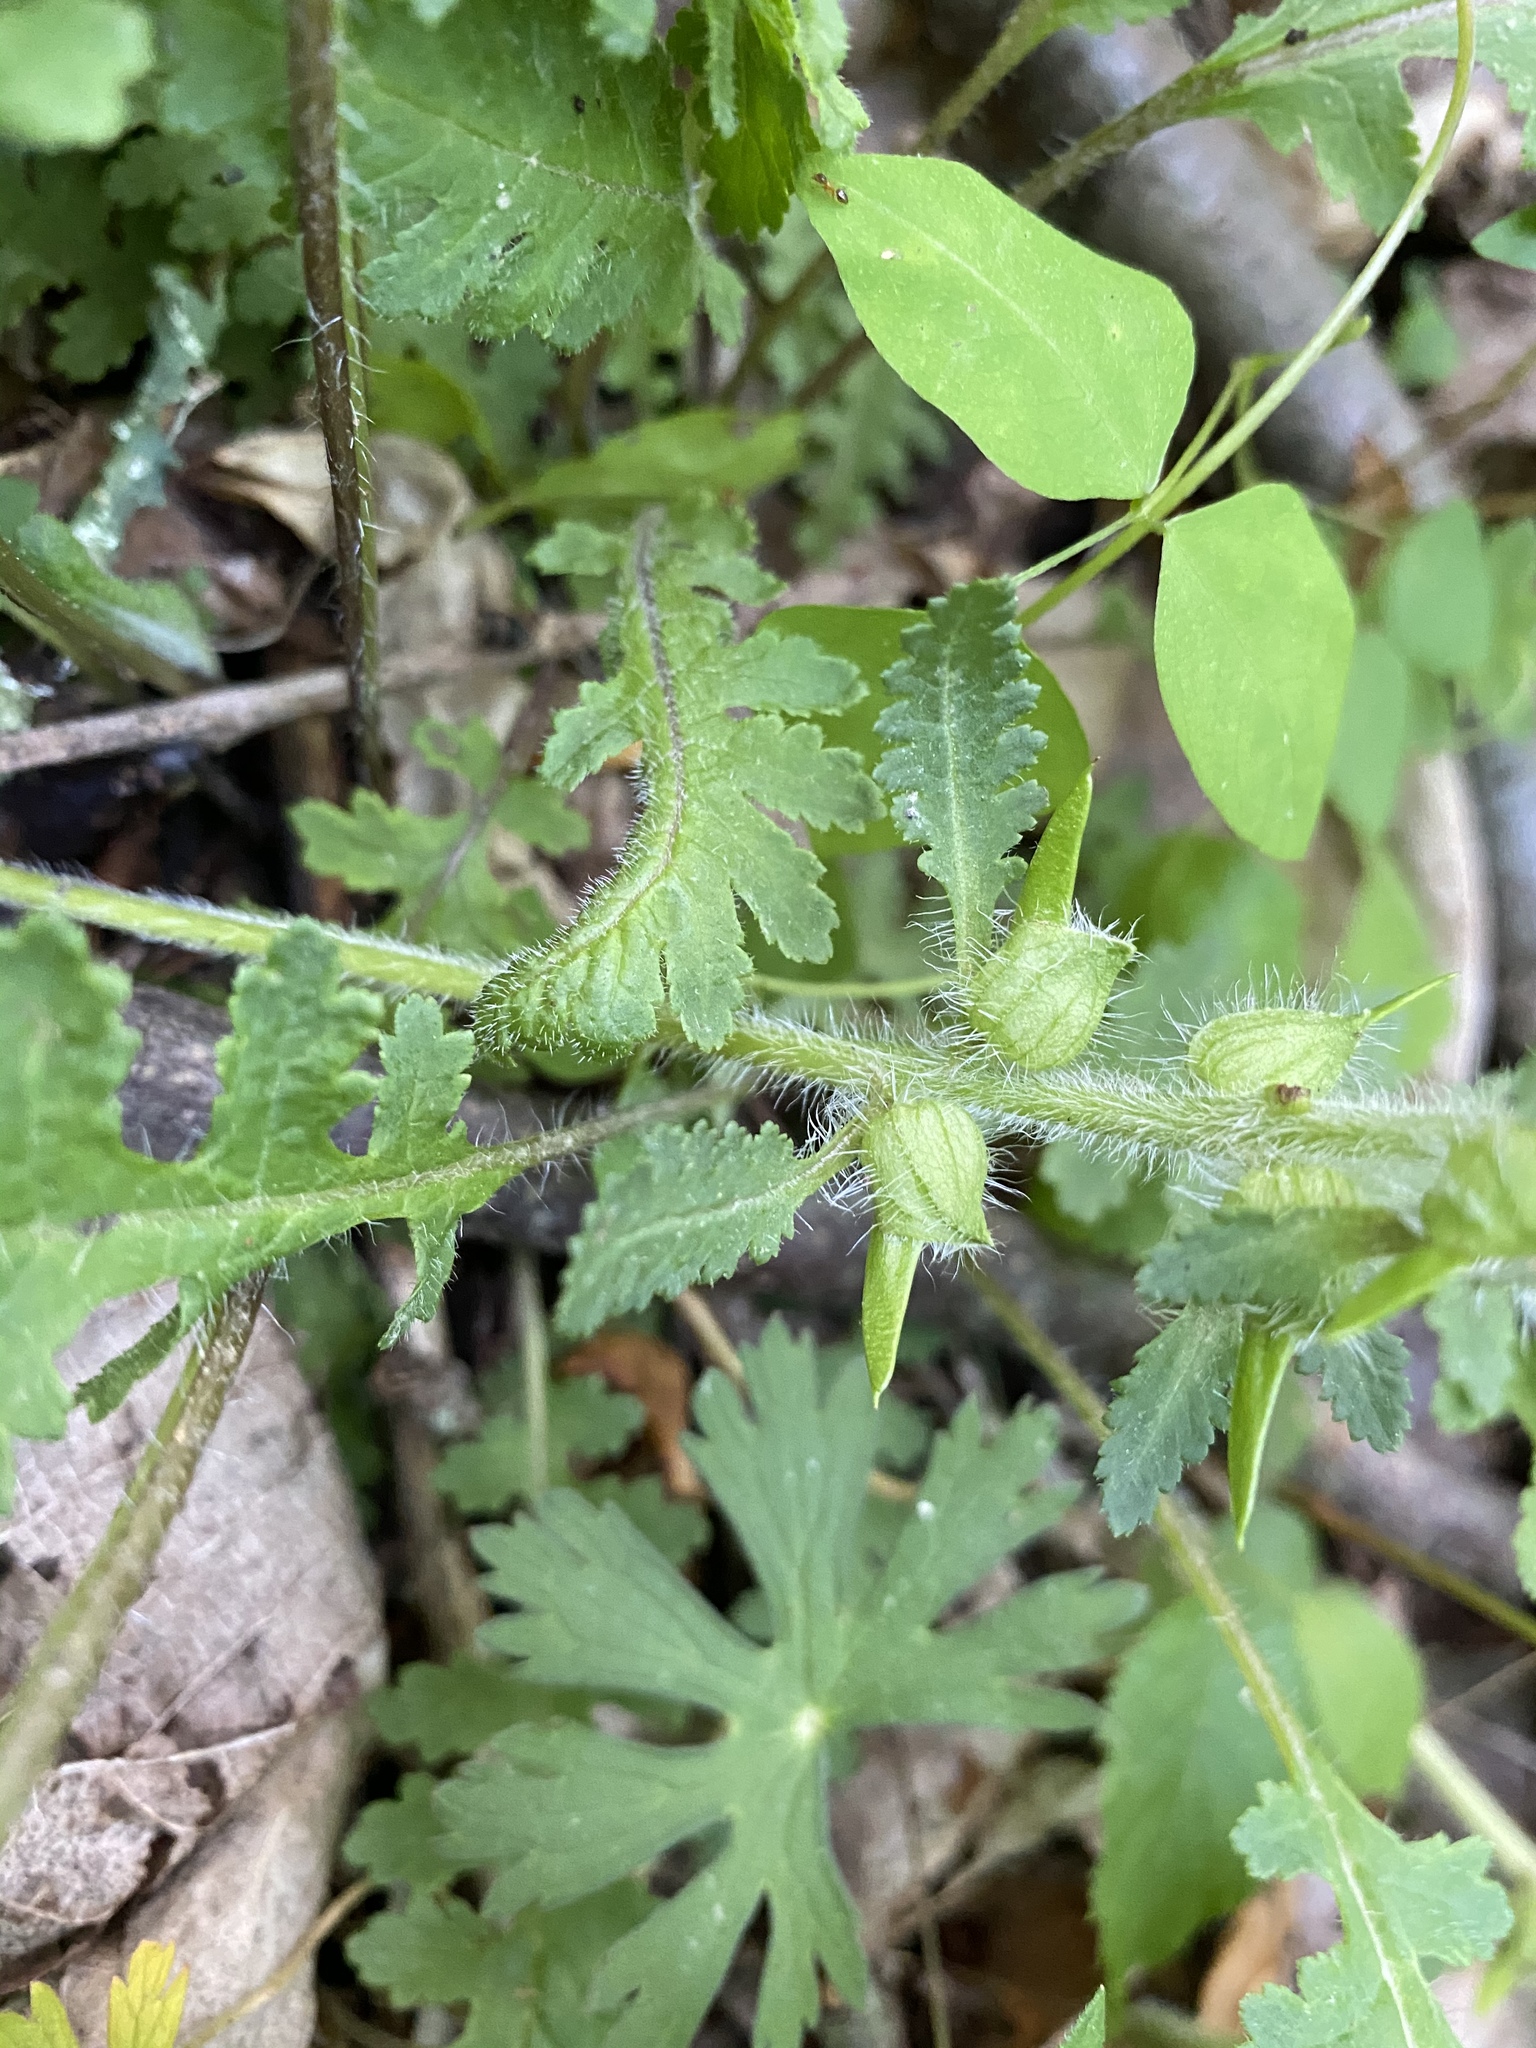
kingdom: Plantae
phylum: Tracheophyta
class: Magnoliopsida
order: Lamiales
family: Orobanchaceae
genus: Pedicularis
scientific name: Pedicularis canadensis
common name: Early lousewort
